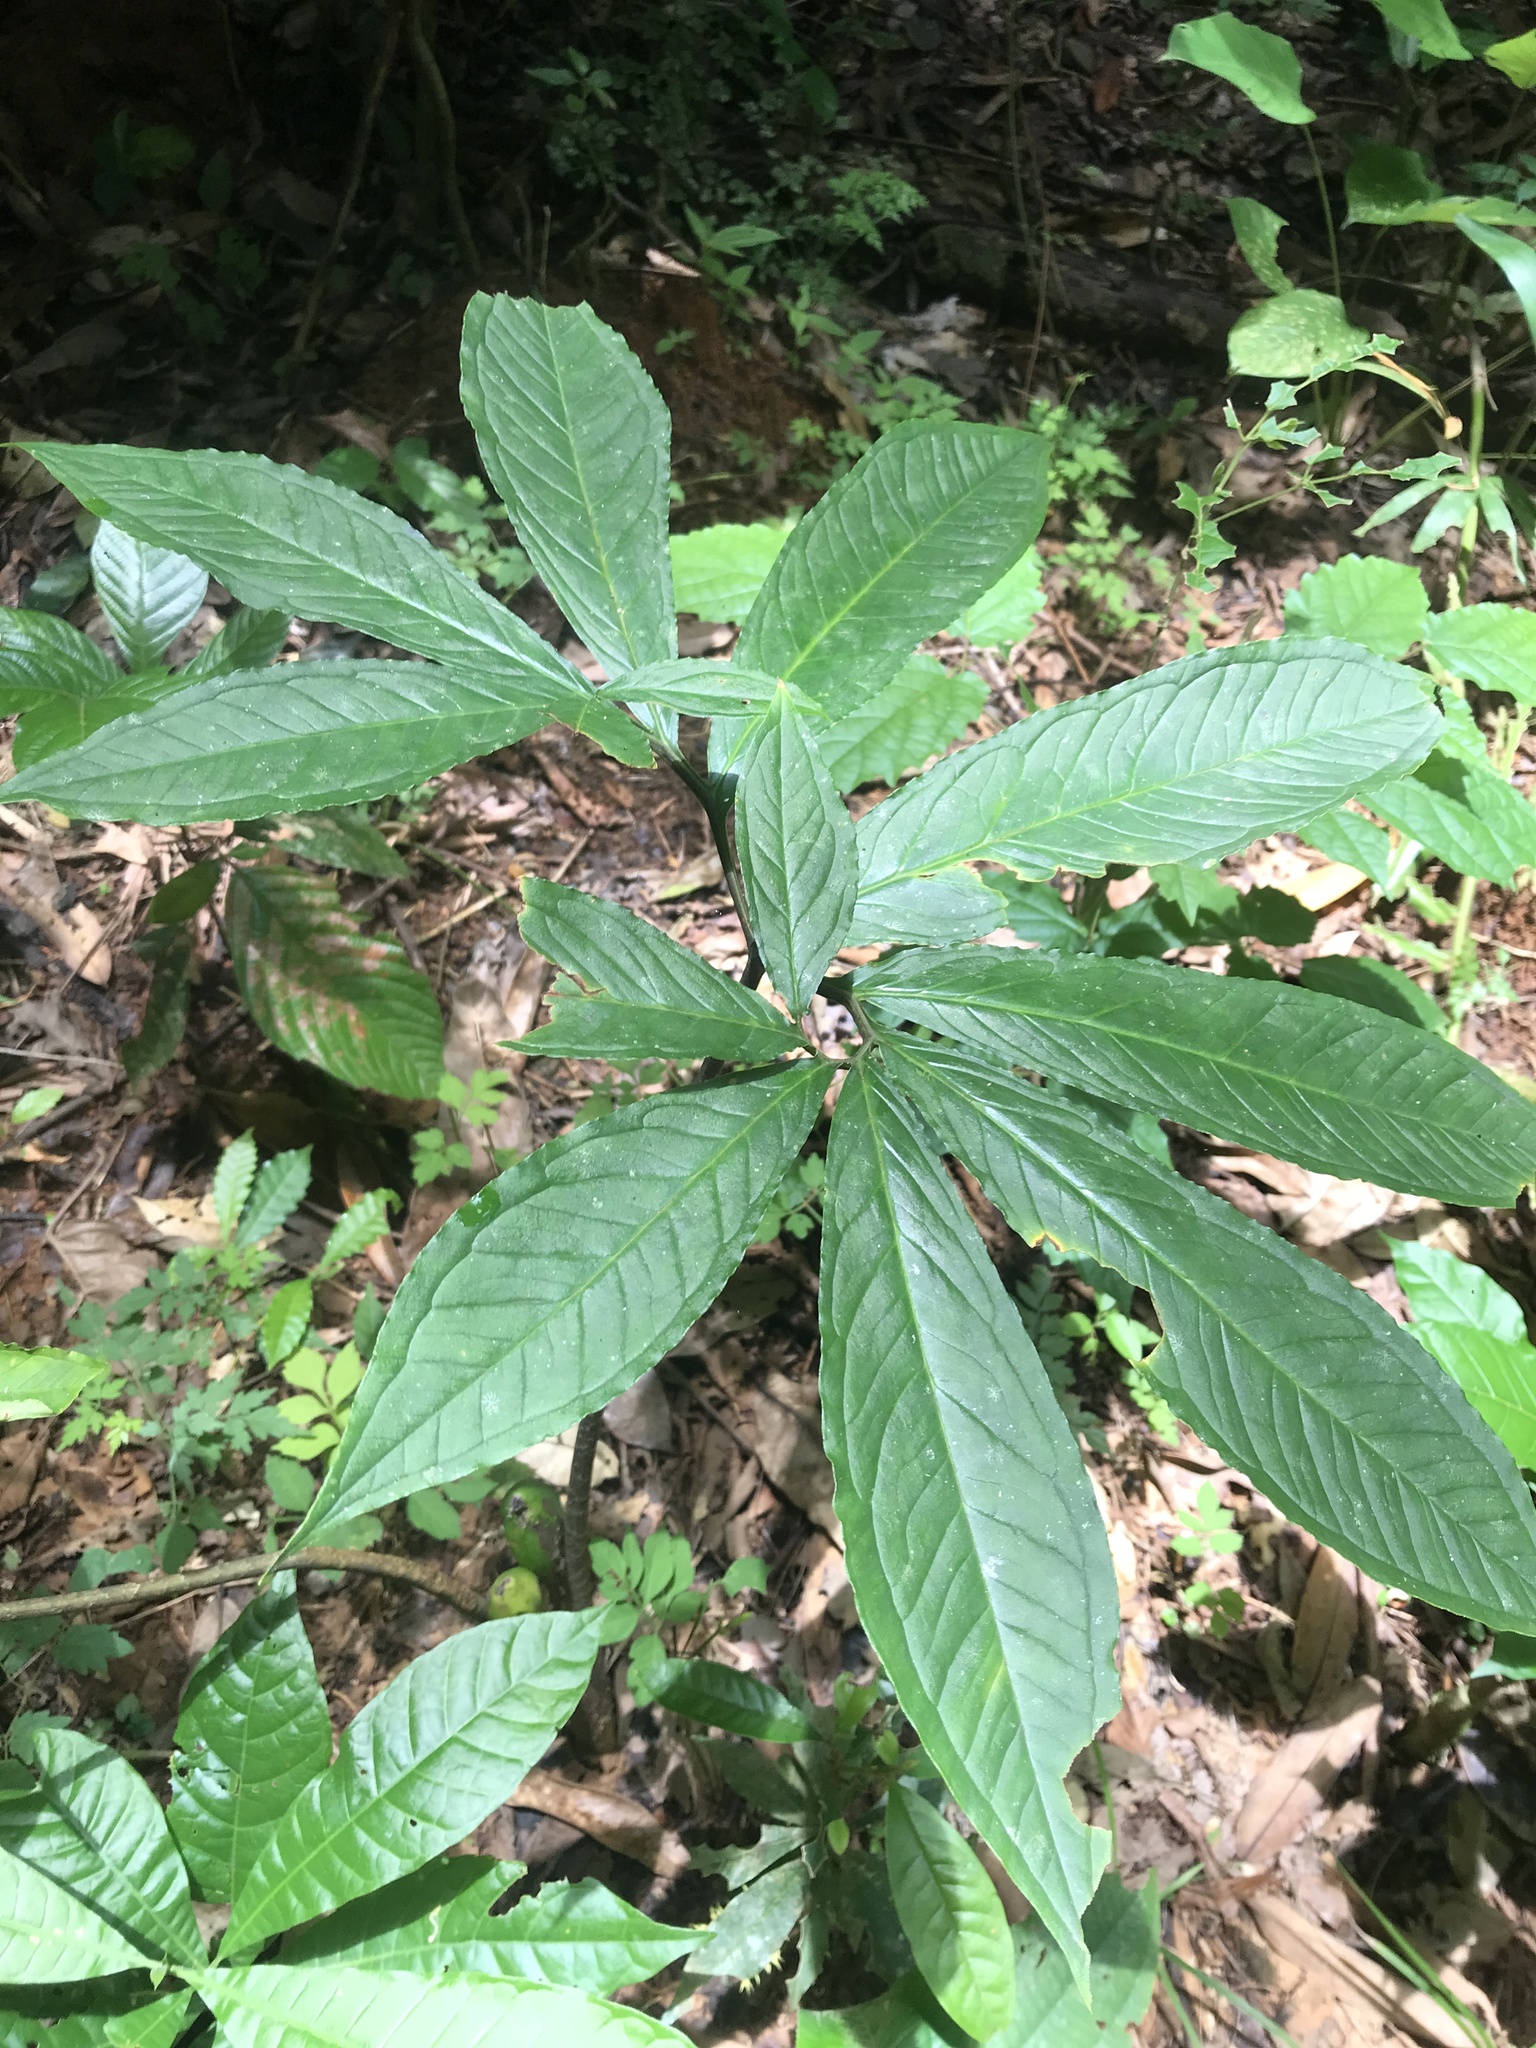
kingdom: Plantae
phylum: Tracheophyta
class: Liliopsida
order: Alismatales
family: Araceae
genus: Xanthosoma
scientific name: Xanthosoma helleborifolium
